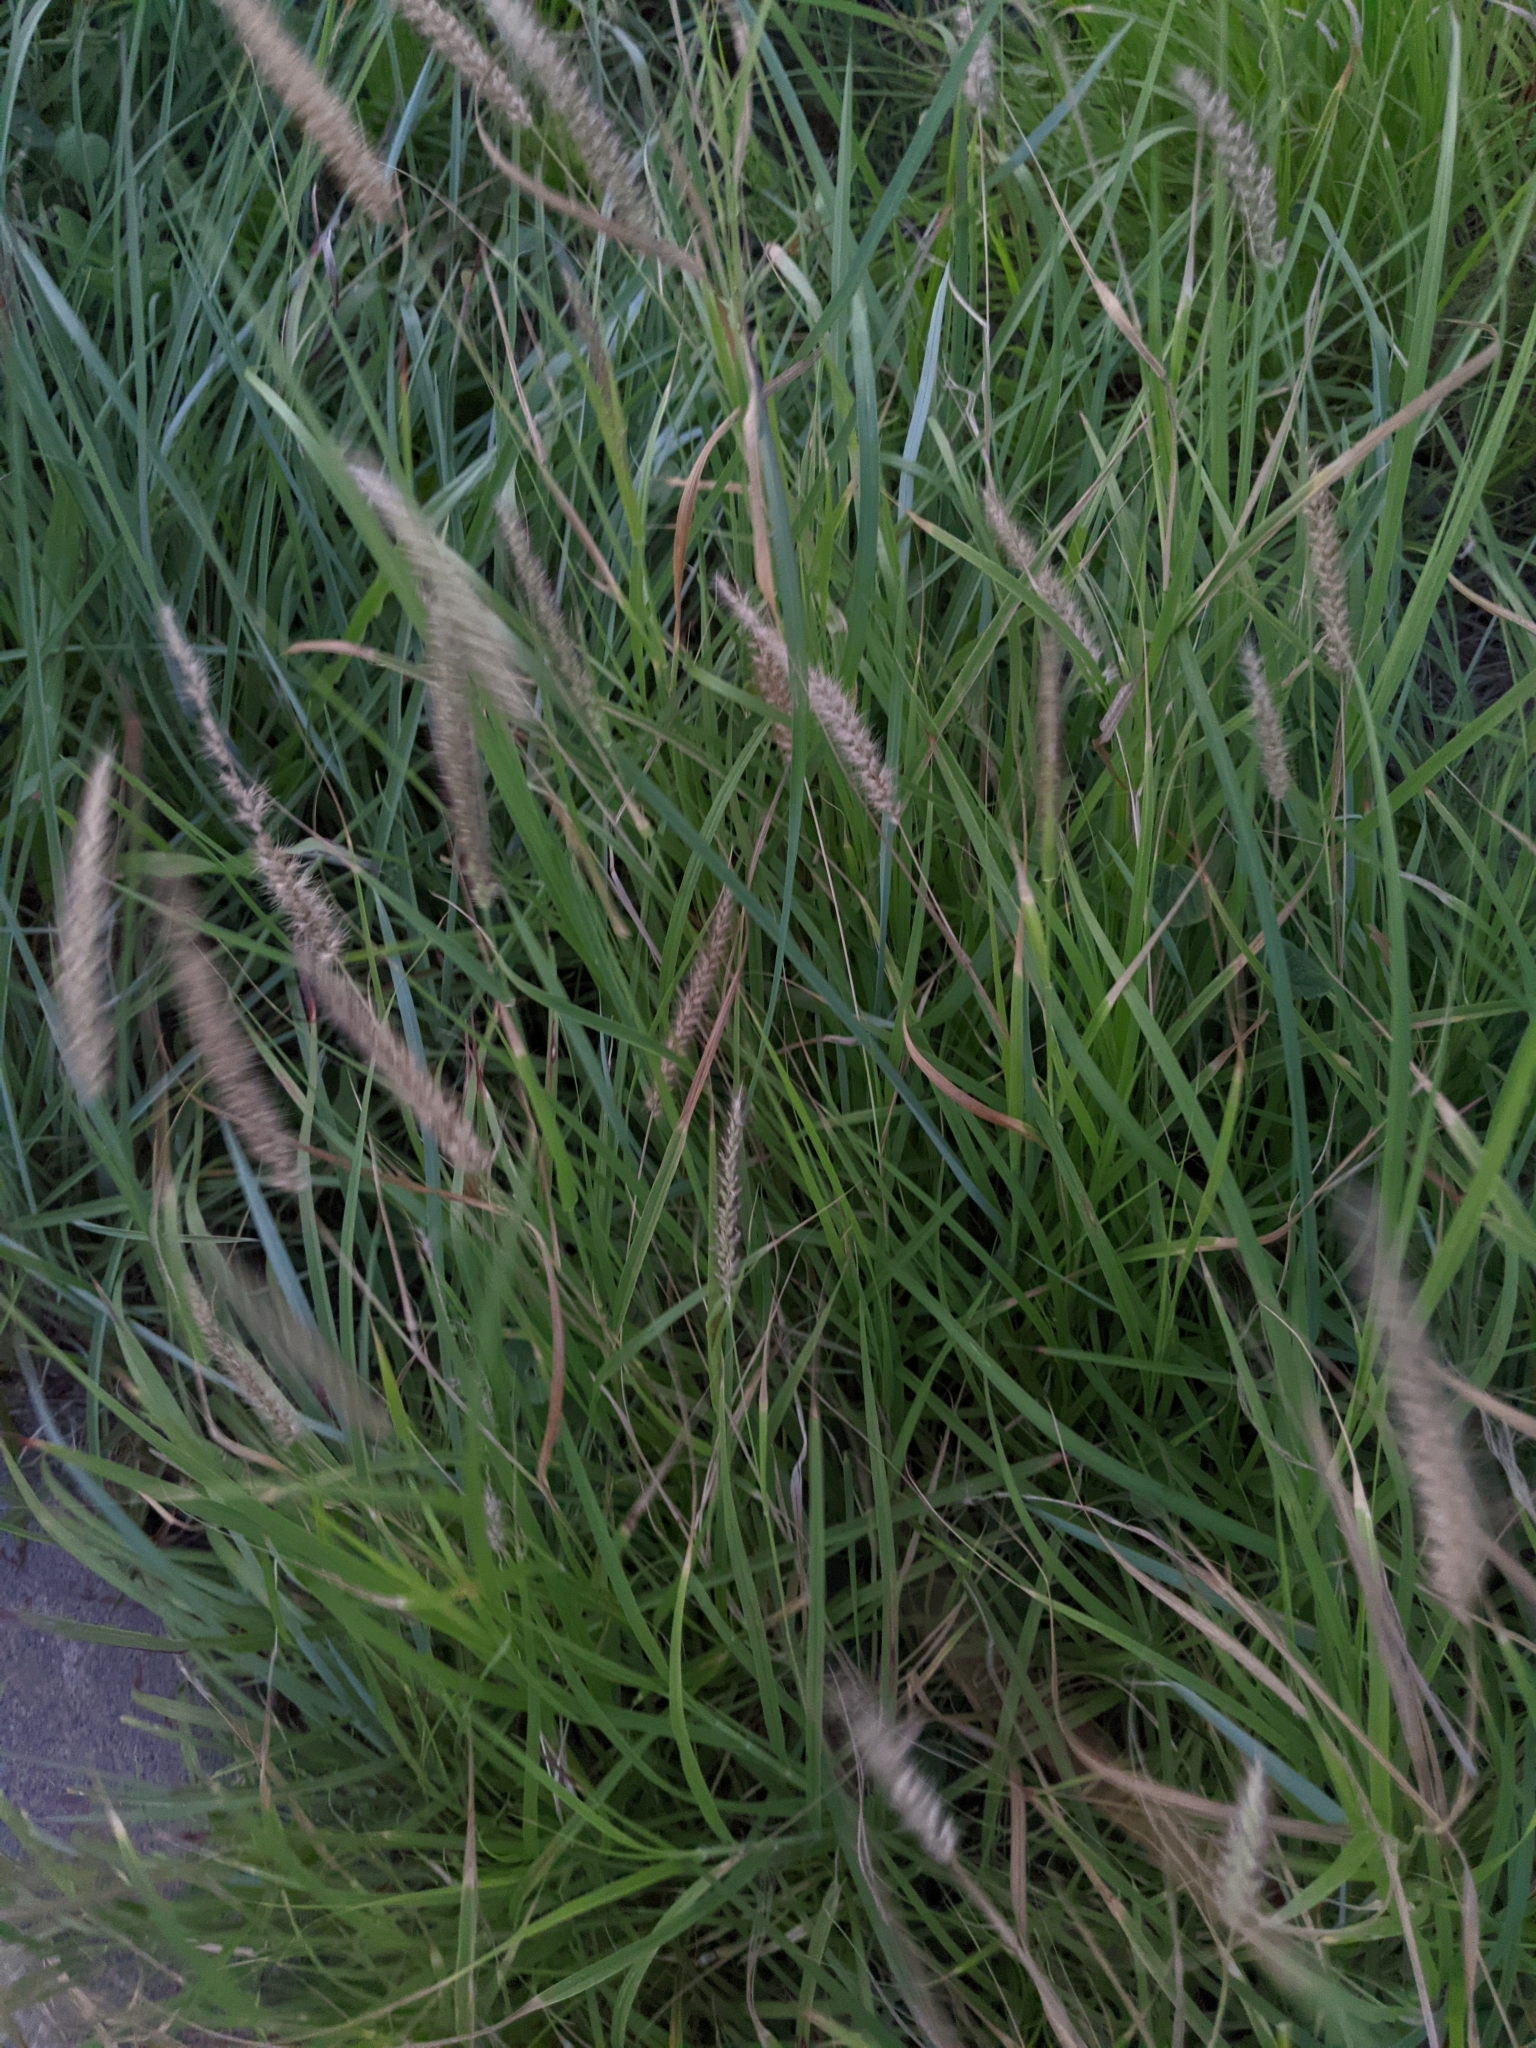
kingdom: Plantae
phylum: Tracheophyta
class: Liliopsida
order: Poales
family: Poaceae
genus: Cenchrus
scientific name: Cenchrus ciliaris
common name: Buffelgrass
